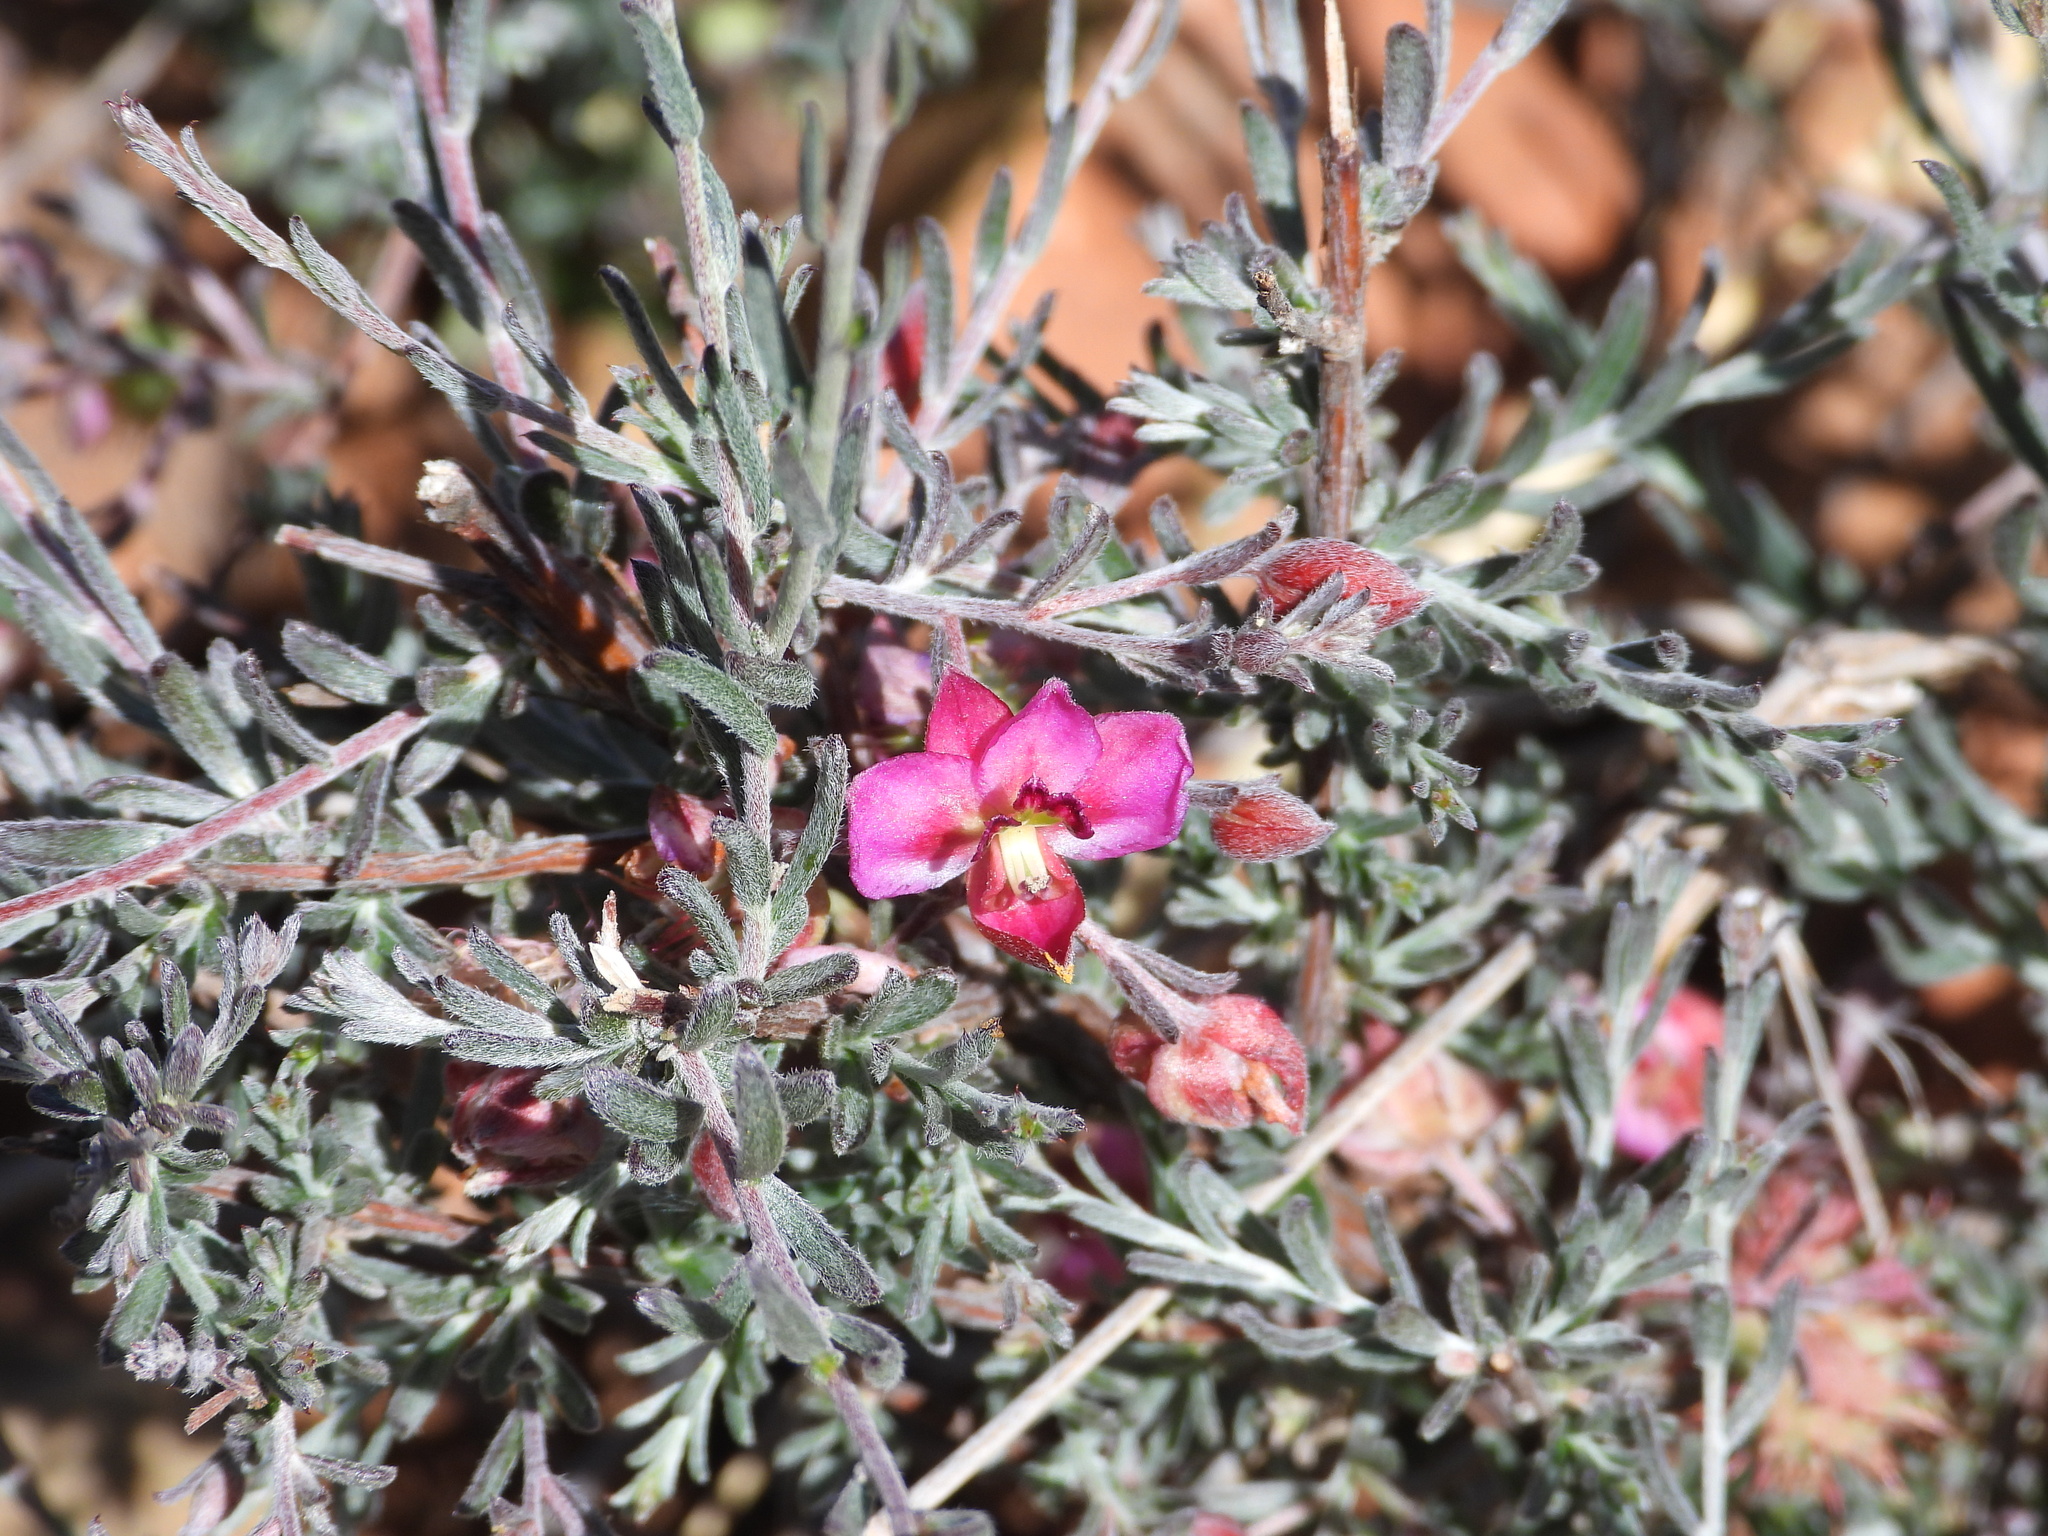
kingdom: Plantae
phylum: Tracheophyta
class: Magnoliopsida
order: Zygophyllales
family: Krameriaceae
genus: Krameria
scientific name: Krameria erecta
